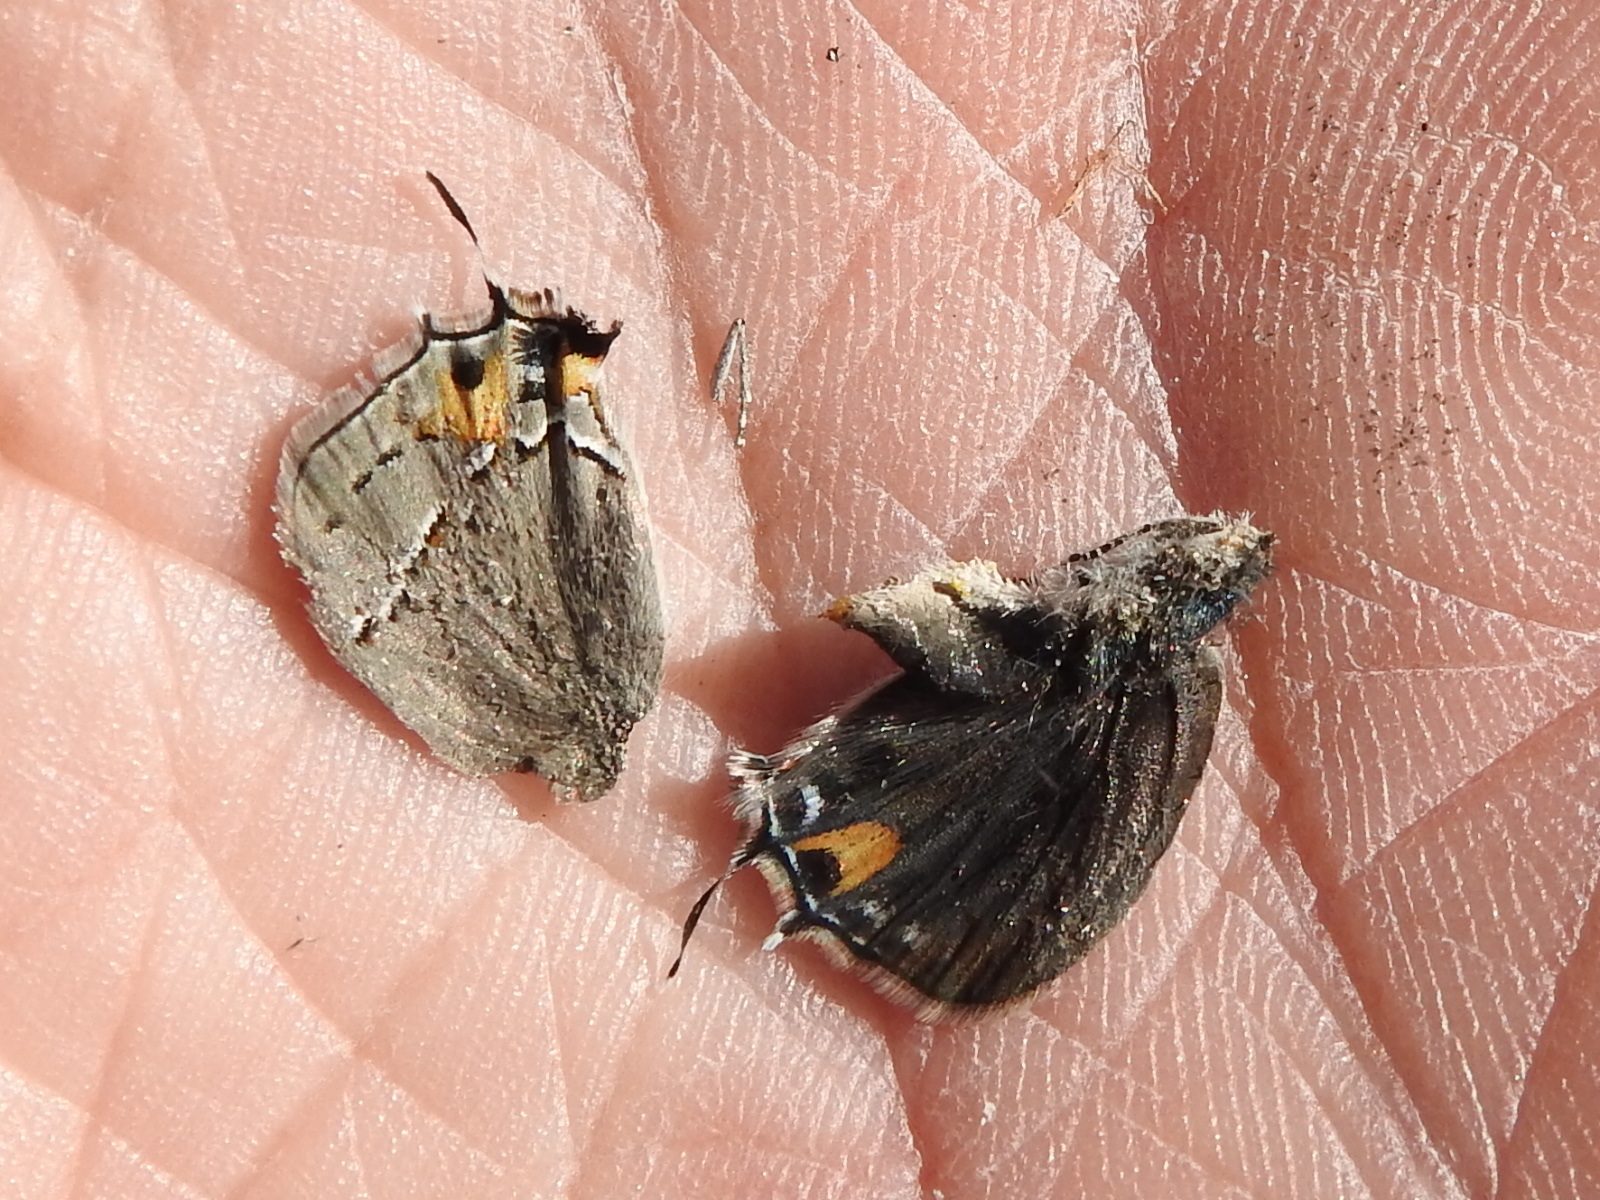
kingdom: Animalia
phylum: Arthropoda
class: Insecta
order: Lepidoptera
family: Lycaenidae
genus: Strymon
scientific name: Strymon melinus
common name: Gray hairstreak
